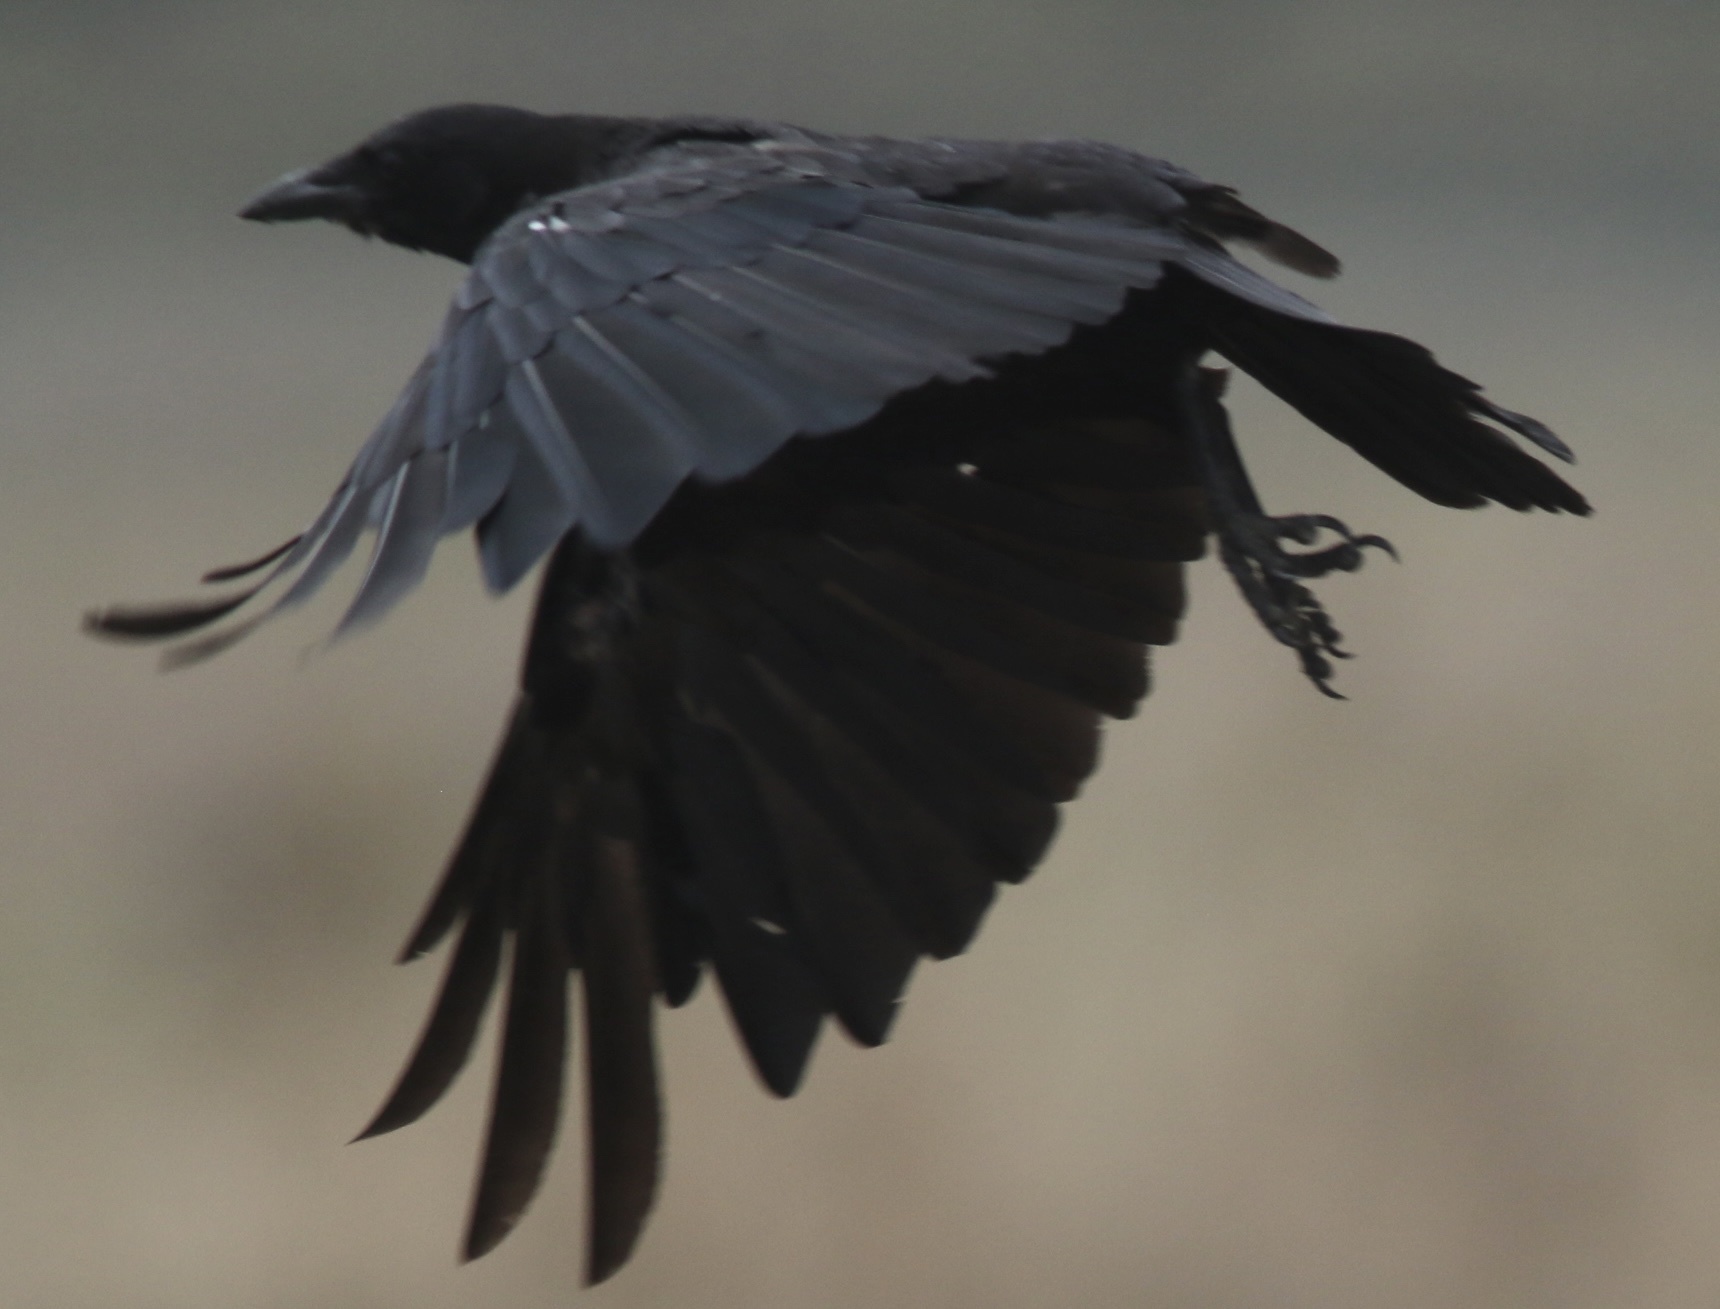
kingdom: Animalia
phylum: Chordata
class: Aves
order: Passeriformes
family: Corvidae
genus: Corvus
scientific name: Corvus brachyrhynchos
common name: American crow
